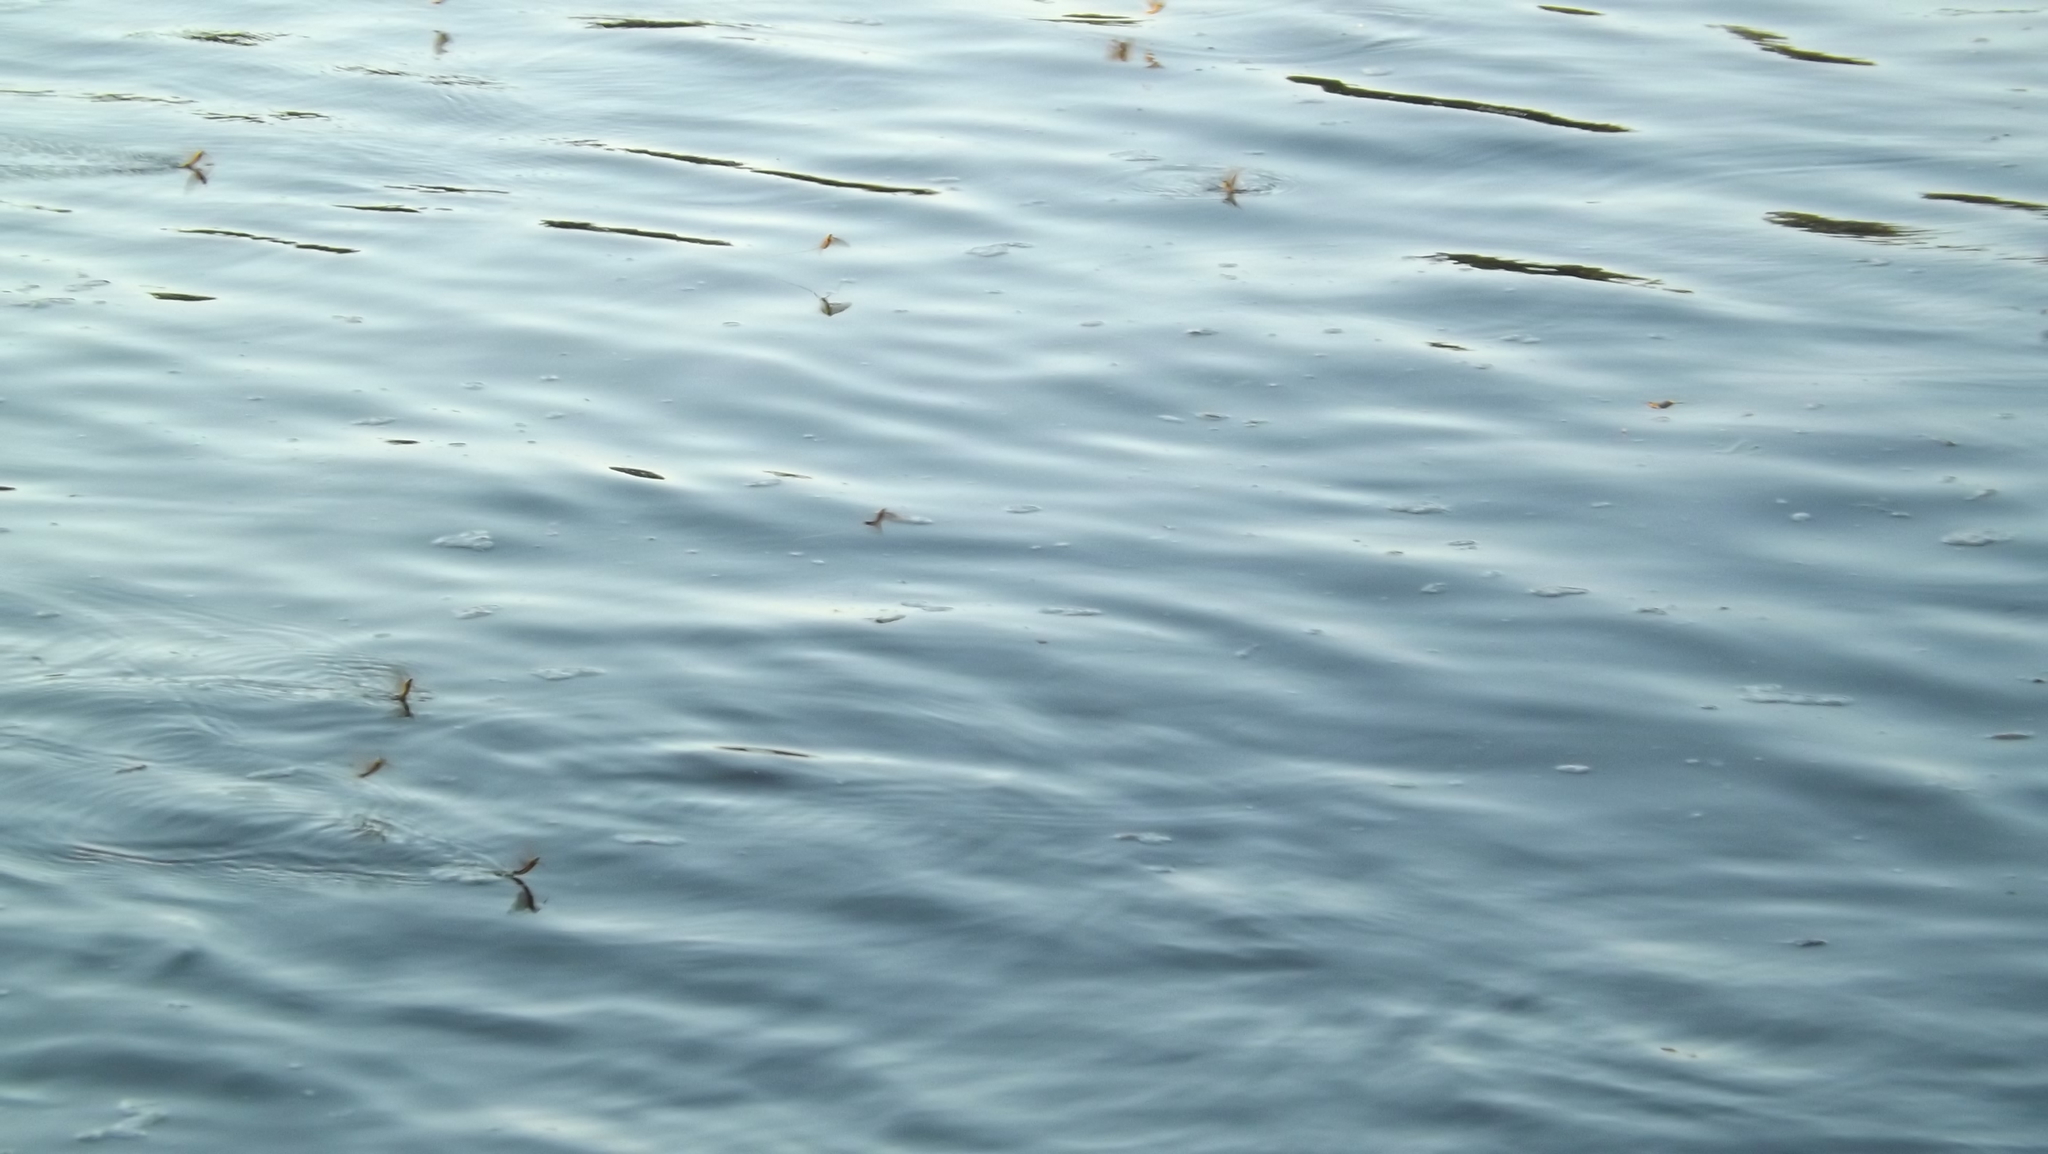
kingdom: Animalia
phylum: Arthropoda
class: Insecta
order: Ephemeroptera
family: Palingeniidae
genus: Palingenia
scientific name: Palingenia longicauda
